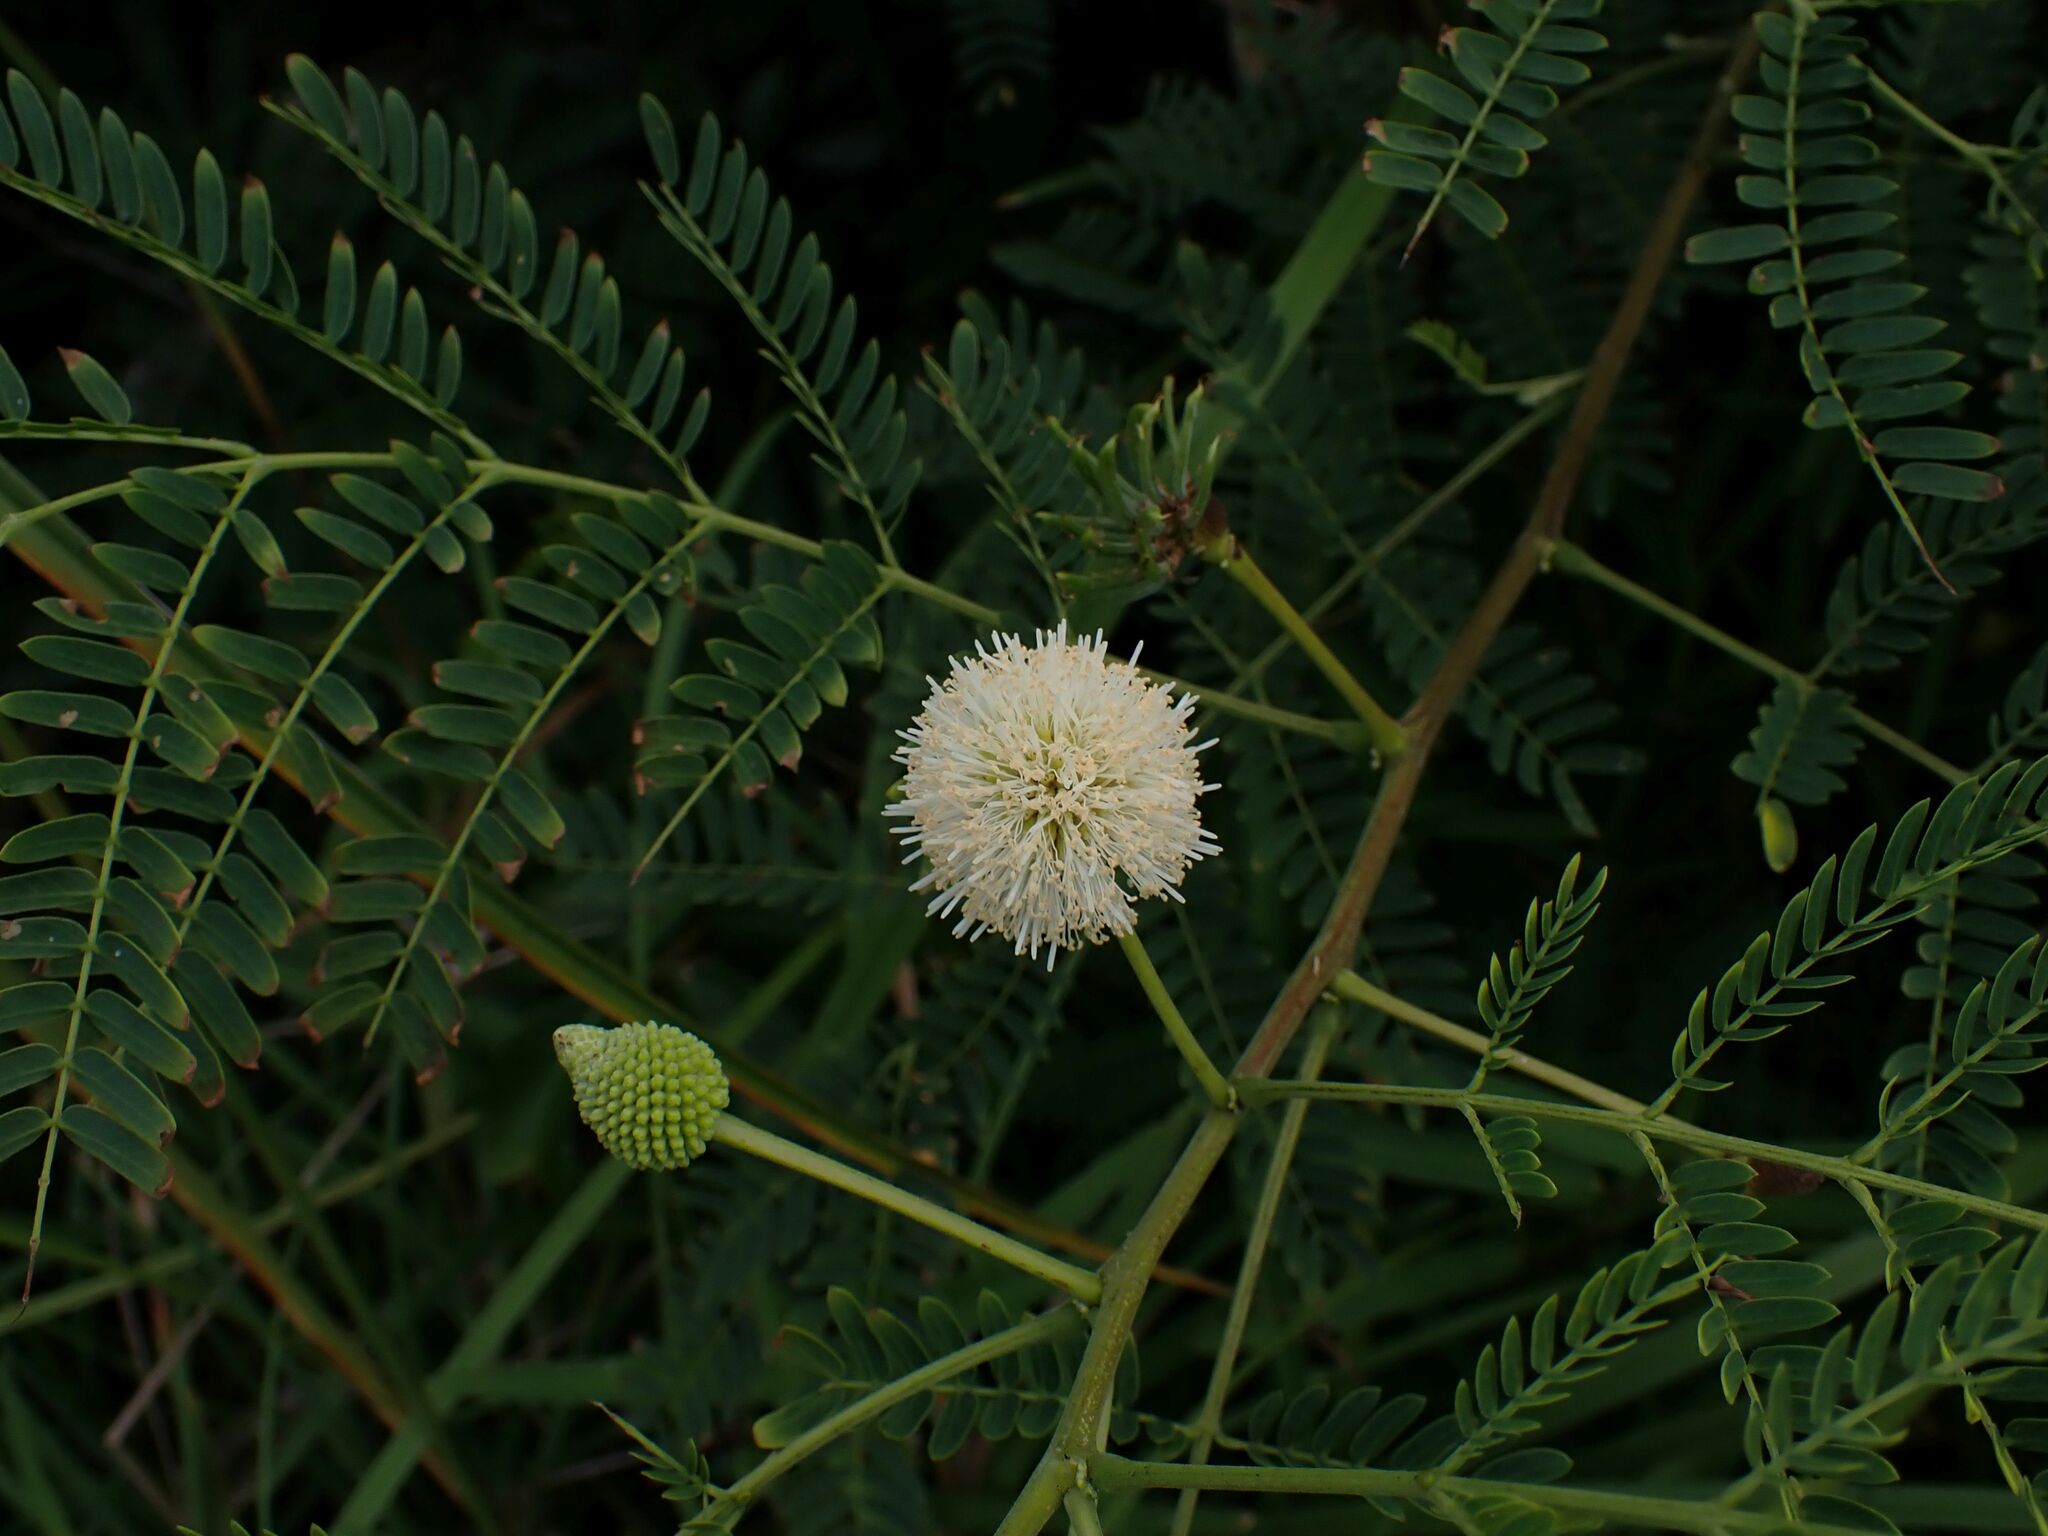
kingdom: Plantae
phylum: Tracheophyta
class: Magnoliopsida
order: Fabales
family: Fabaceae
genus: Leucaena
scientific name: Leucaena leucocephala
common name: White leadtree
